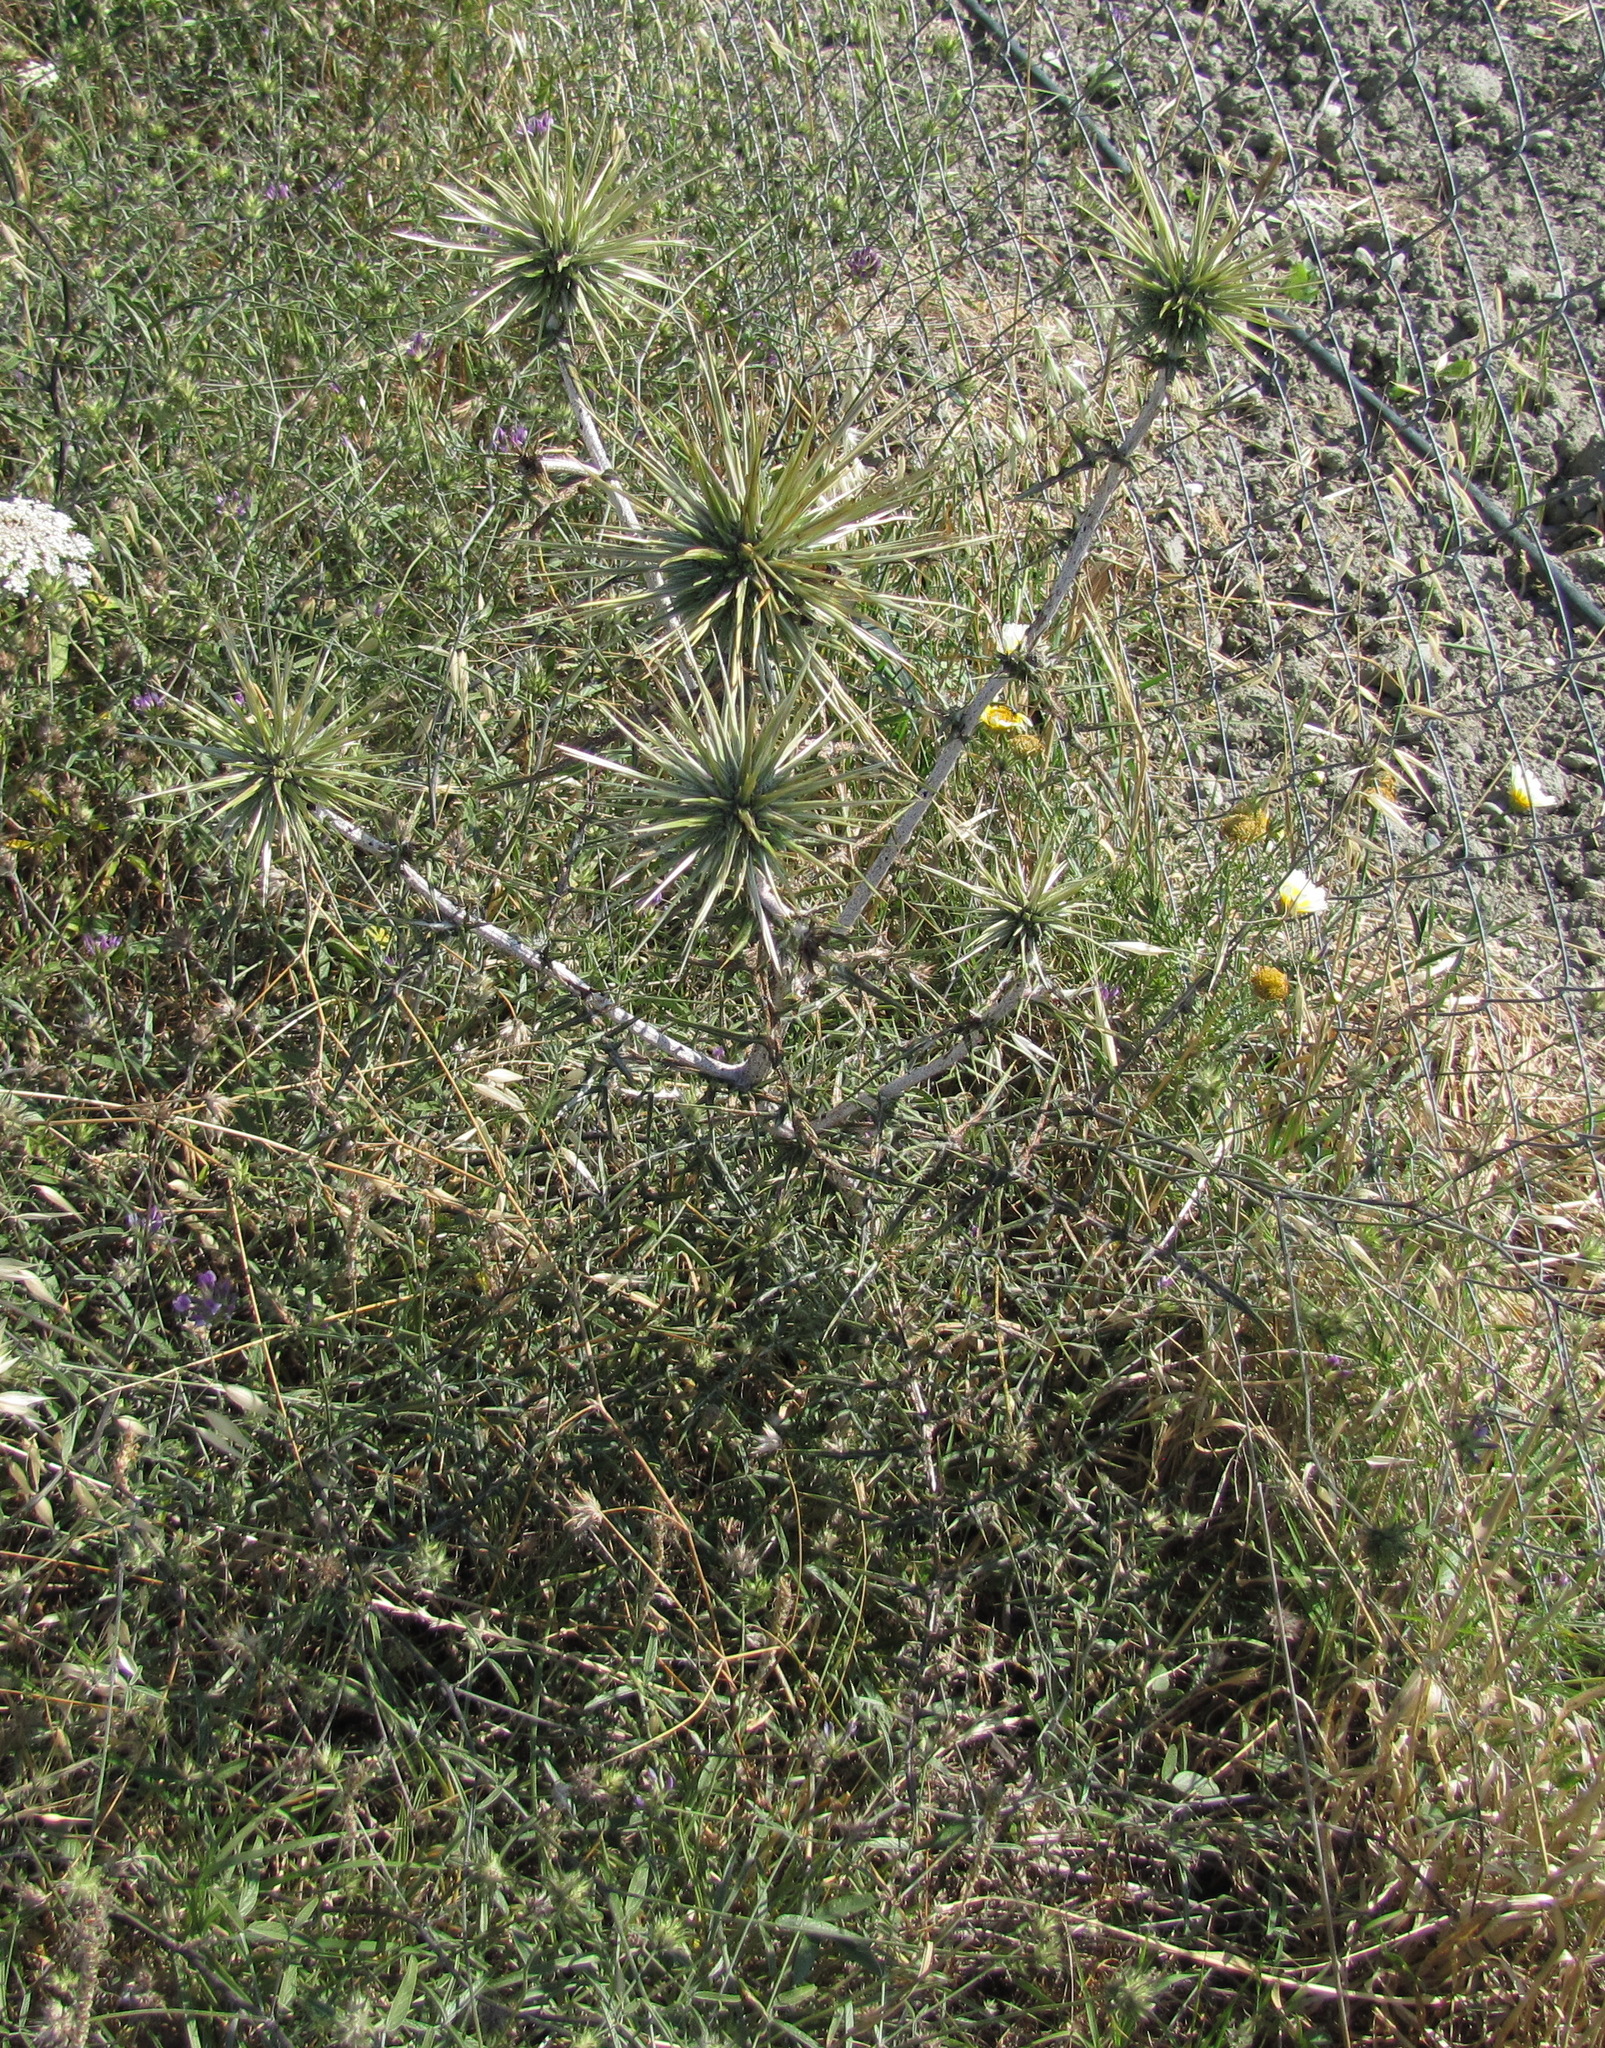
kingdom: Plantae
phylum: Tracheophyta
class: Magnoliopsida
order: Asterales
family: Asteraceae
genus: Echinops
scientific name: Echinops spinosissimus
